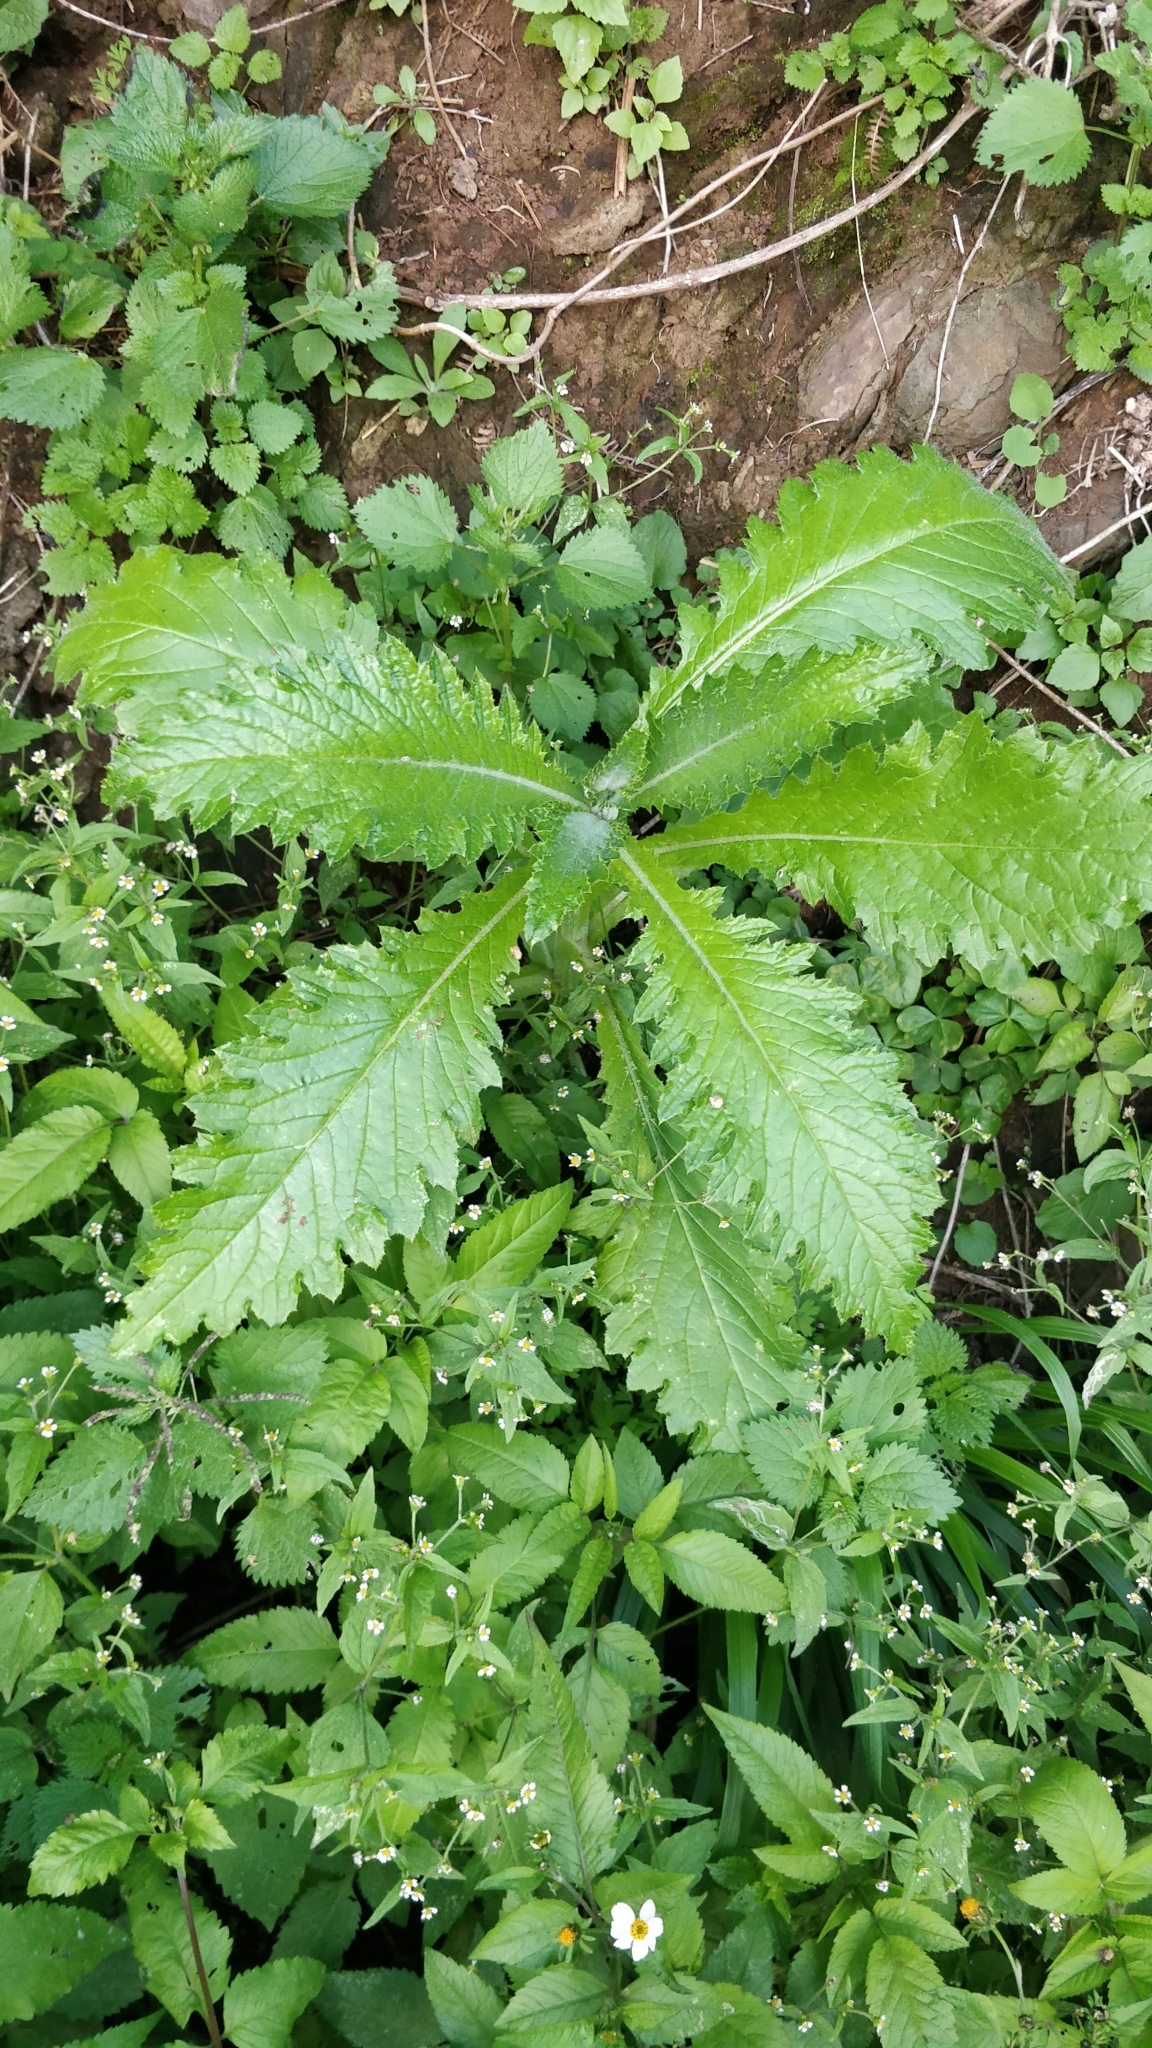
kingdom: Plantae
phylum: Tracheophyta
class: Magnoliopsida
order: Asterales
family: Asteraceae
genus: Carduus
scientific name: Carduus squarrosus
